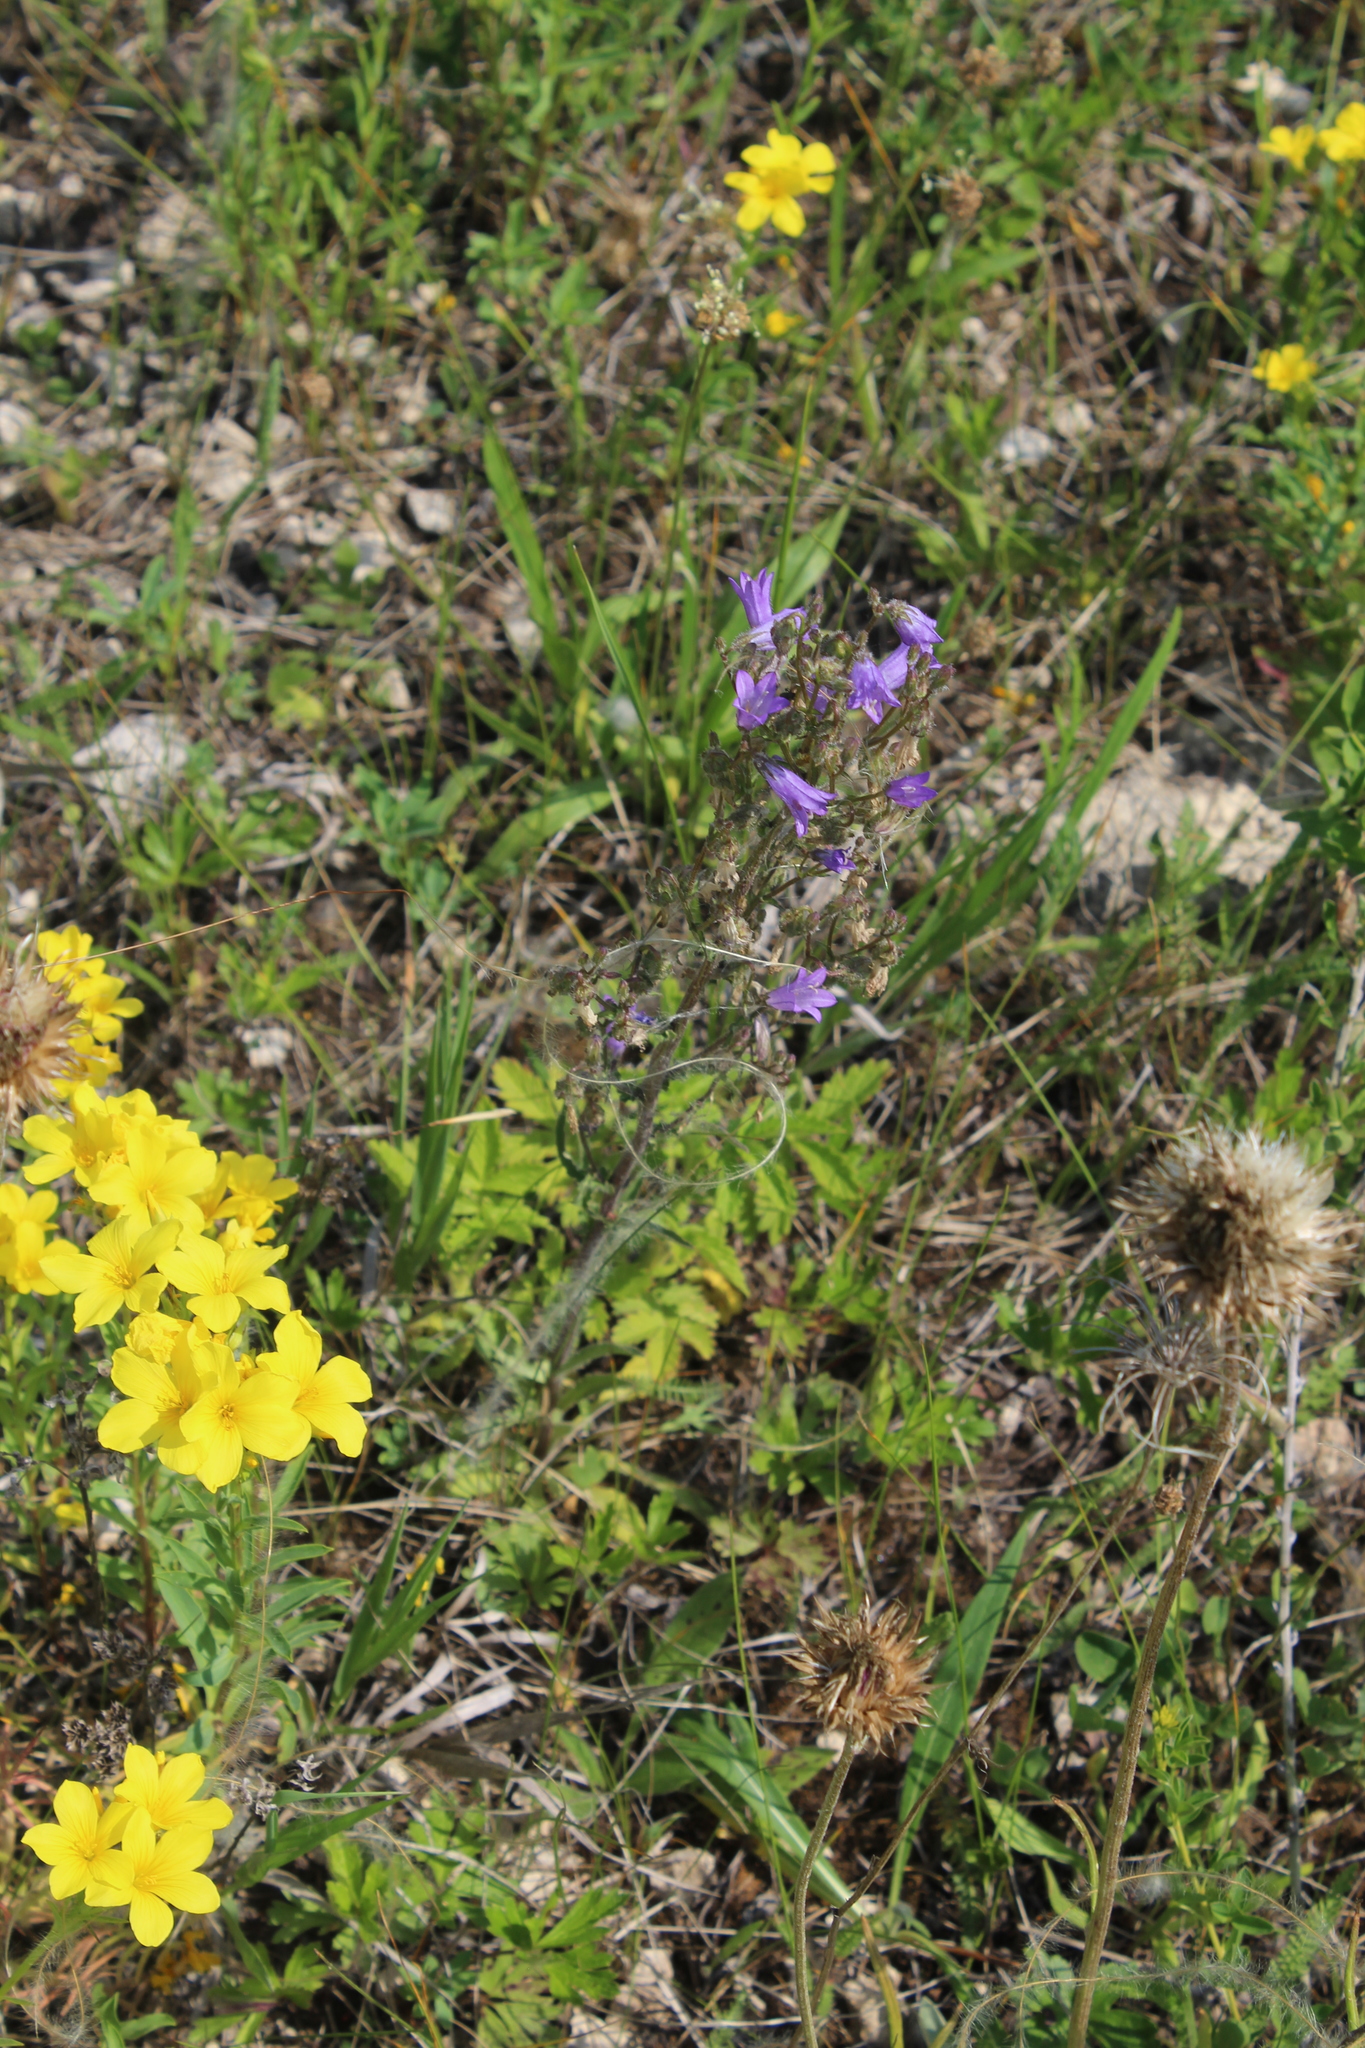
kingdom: Plantae
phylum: Tracheophyta
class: Magnoliopsida
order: Asterales
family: Campanulaceae
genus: Campanula
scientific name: Campanula sibirica
